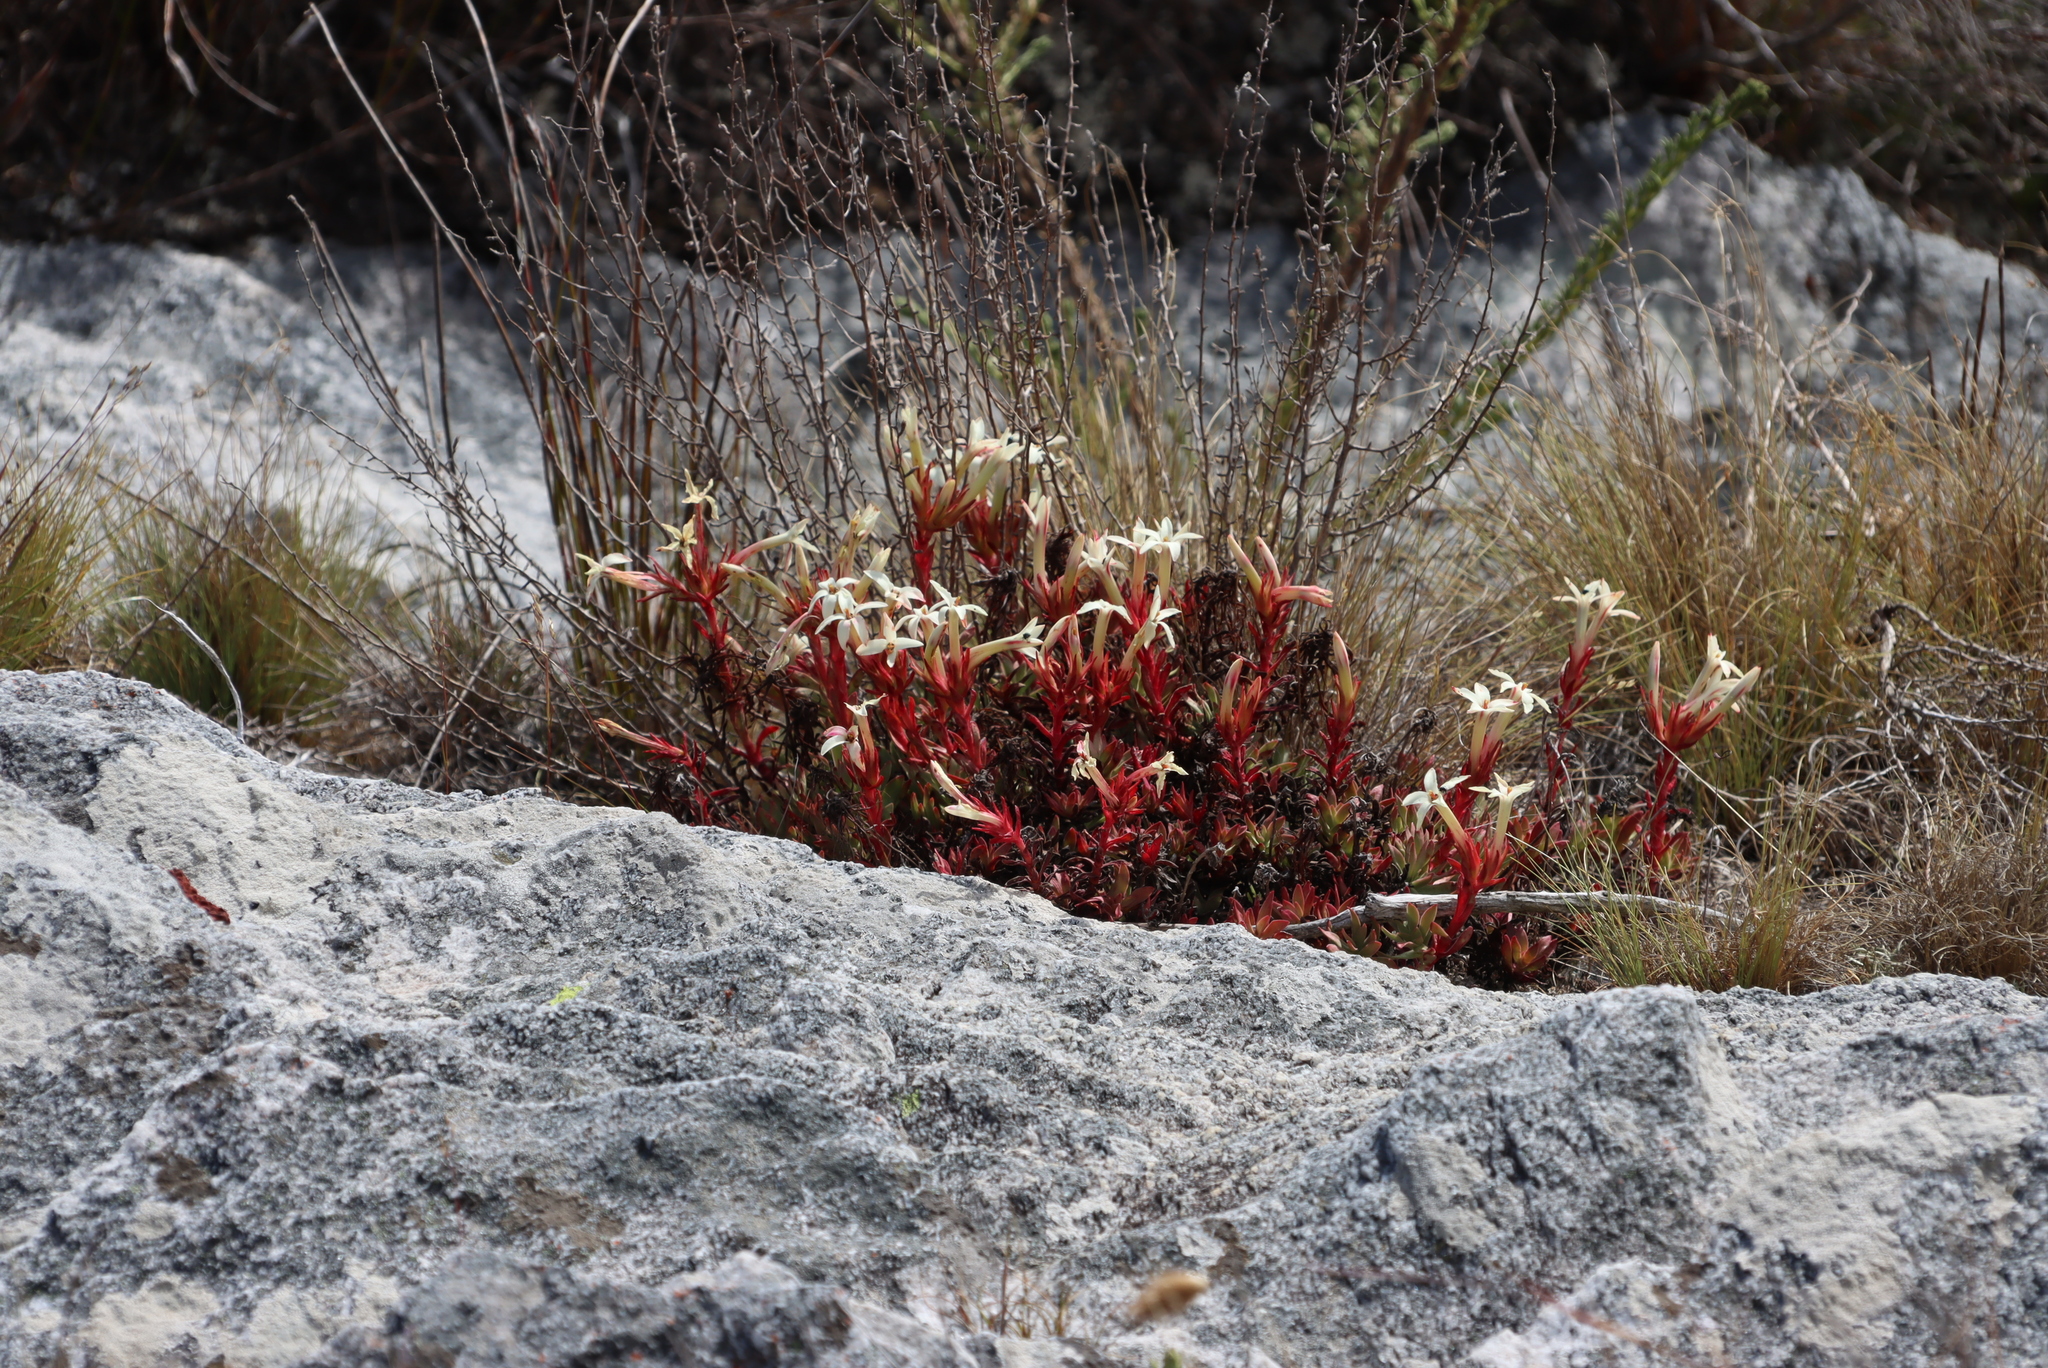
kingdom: Plantae
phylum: Tracheophyta
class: Magnoliopsida
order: Saxifragales
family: Crassulaceae
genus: Crassula
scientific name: Crassula obtusa
